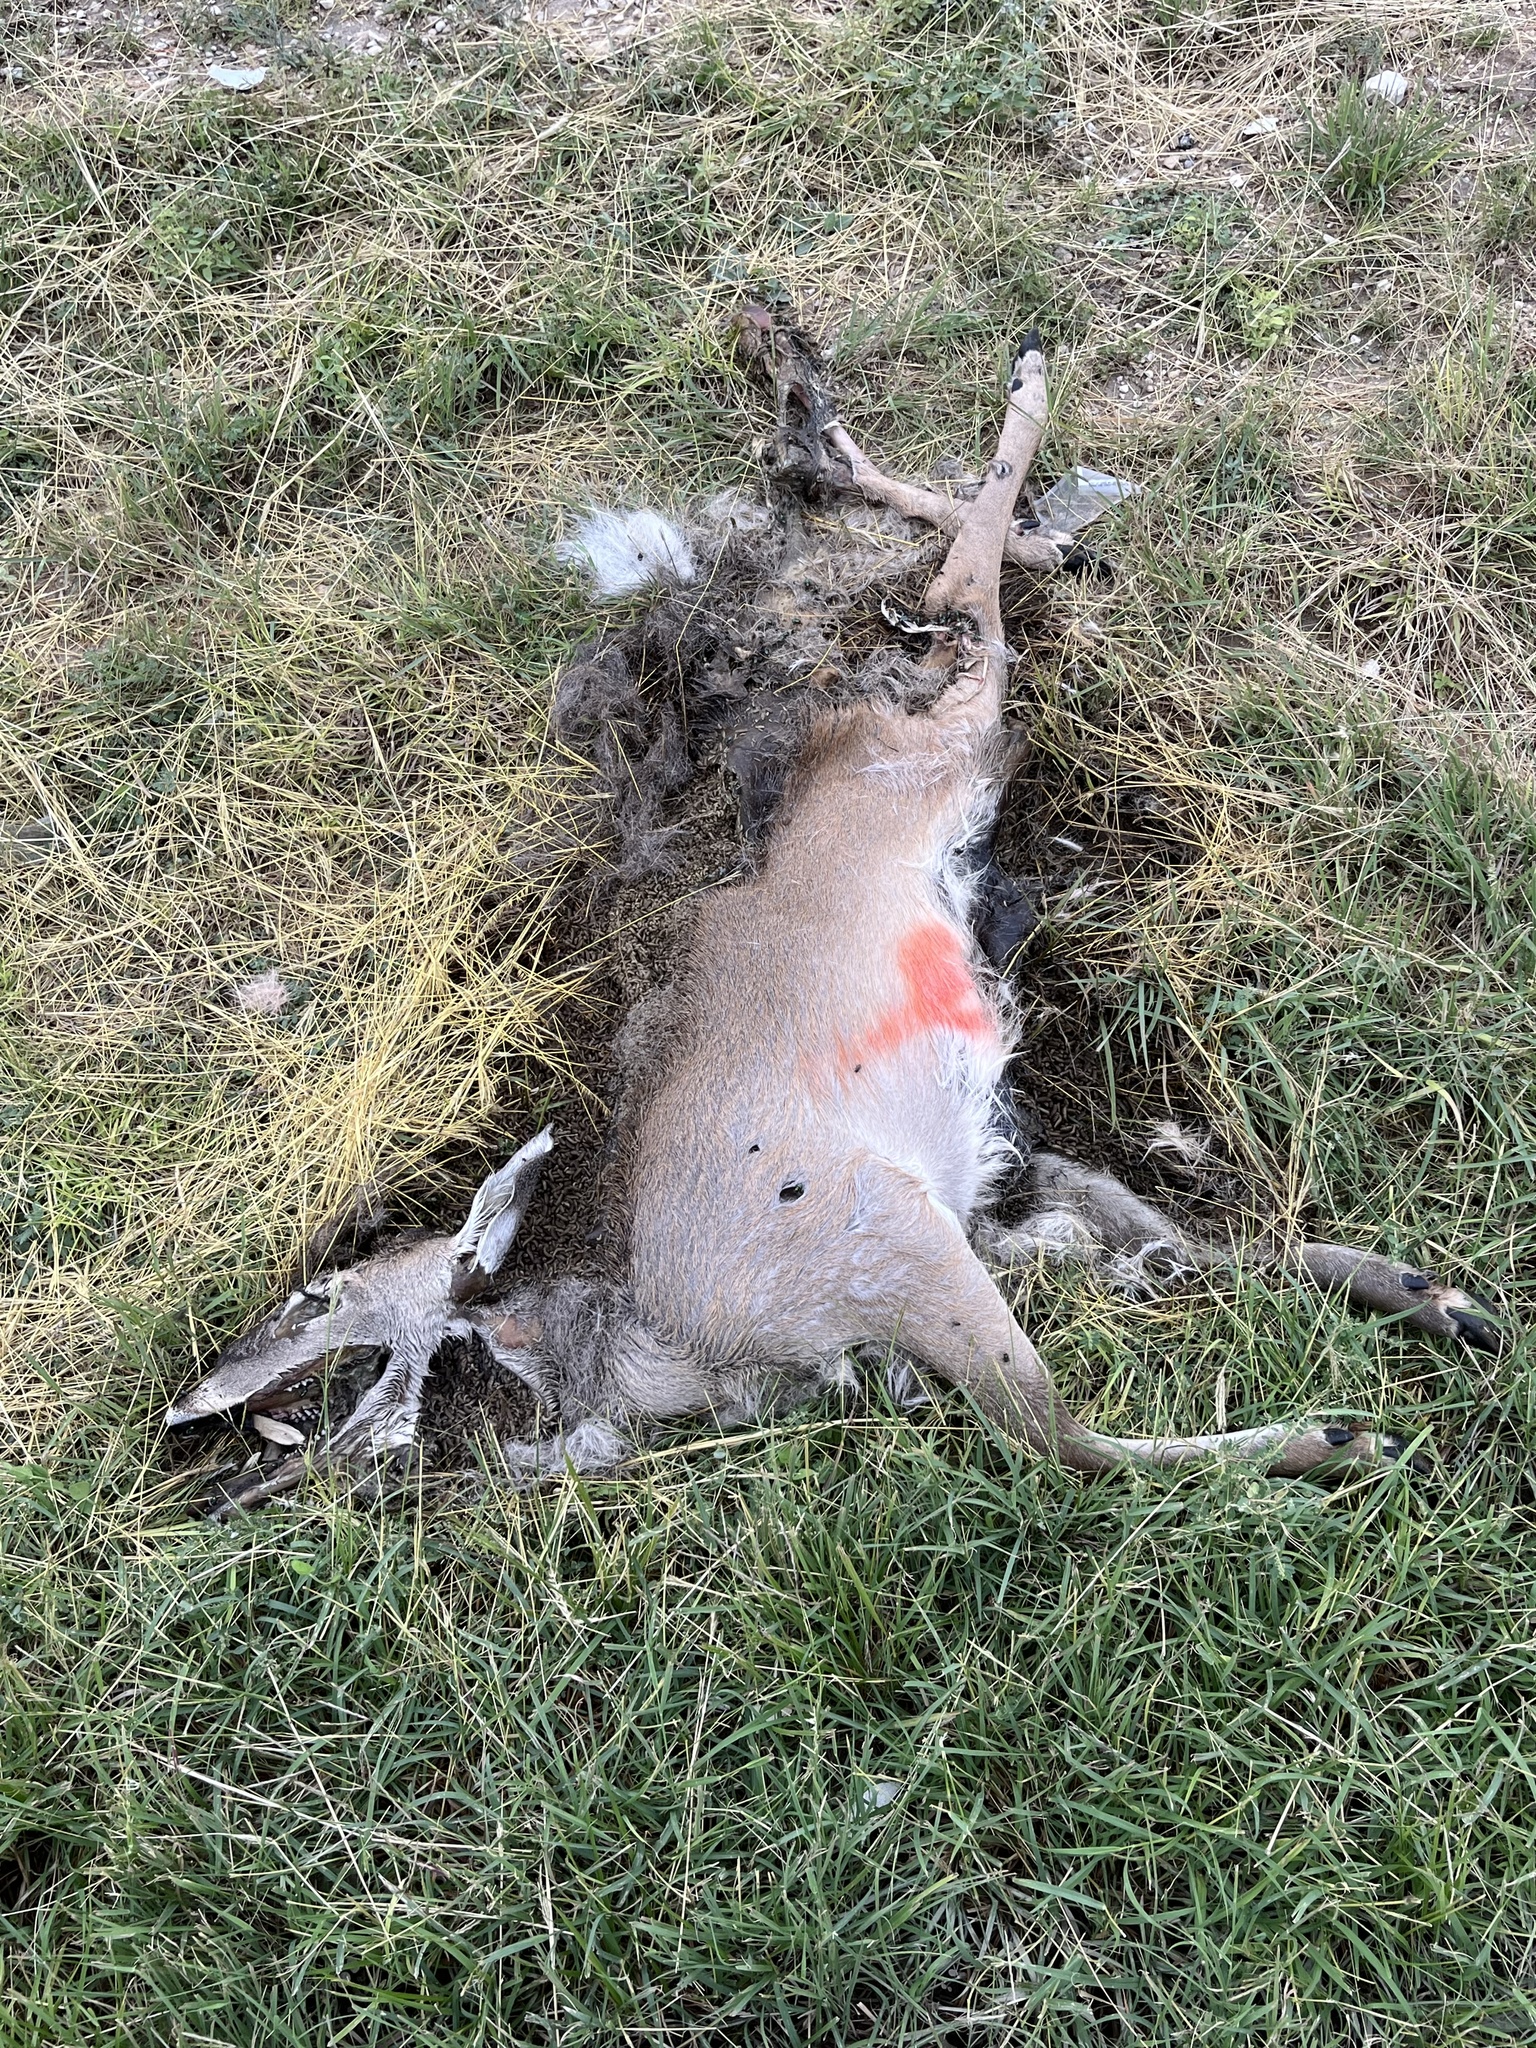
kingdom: Animalia
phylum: Chordata
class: Mammalia
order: Artiodactyla
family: Cervidae
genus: Odocoileus
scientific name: Odocoileus virginianus
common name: White-tailed deer
